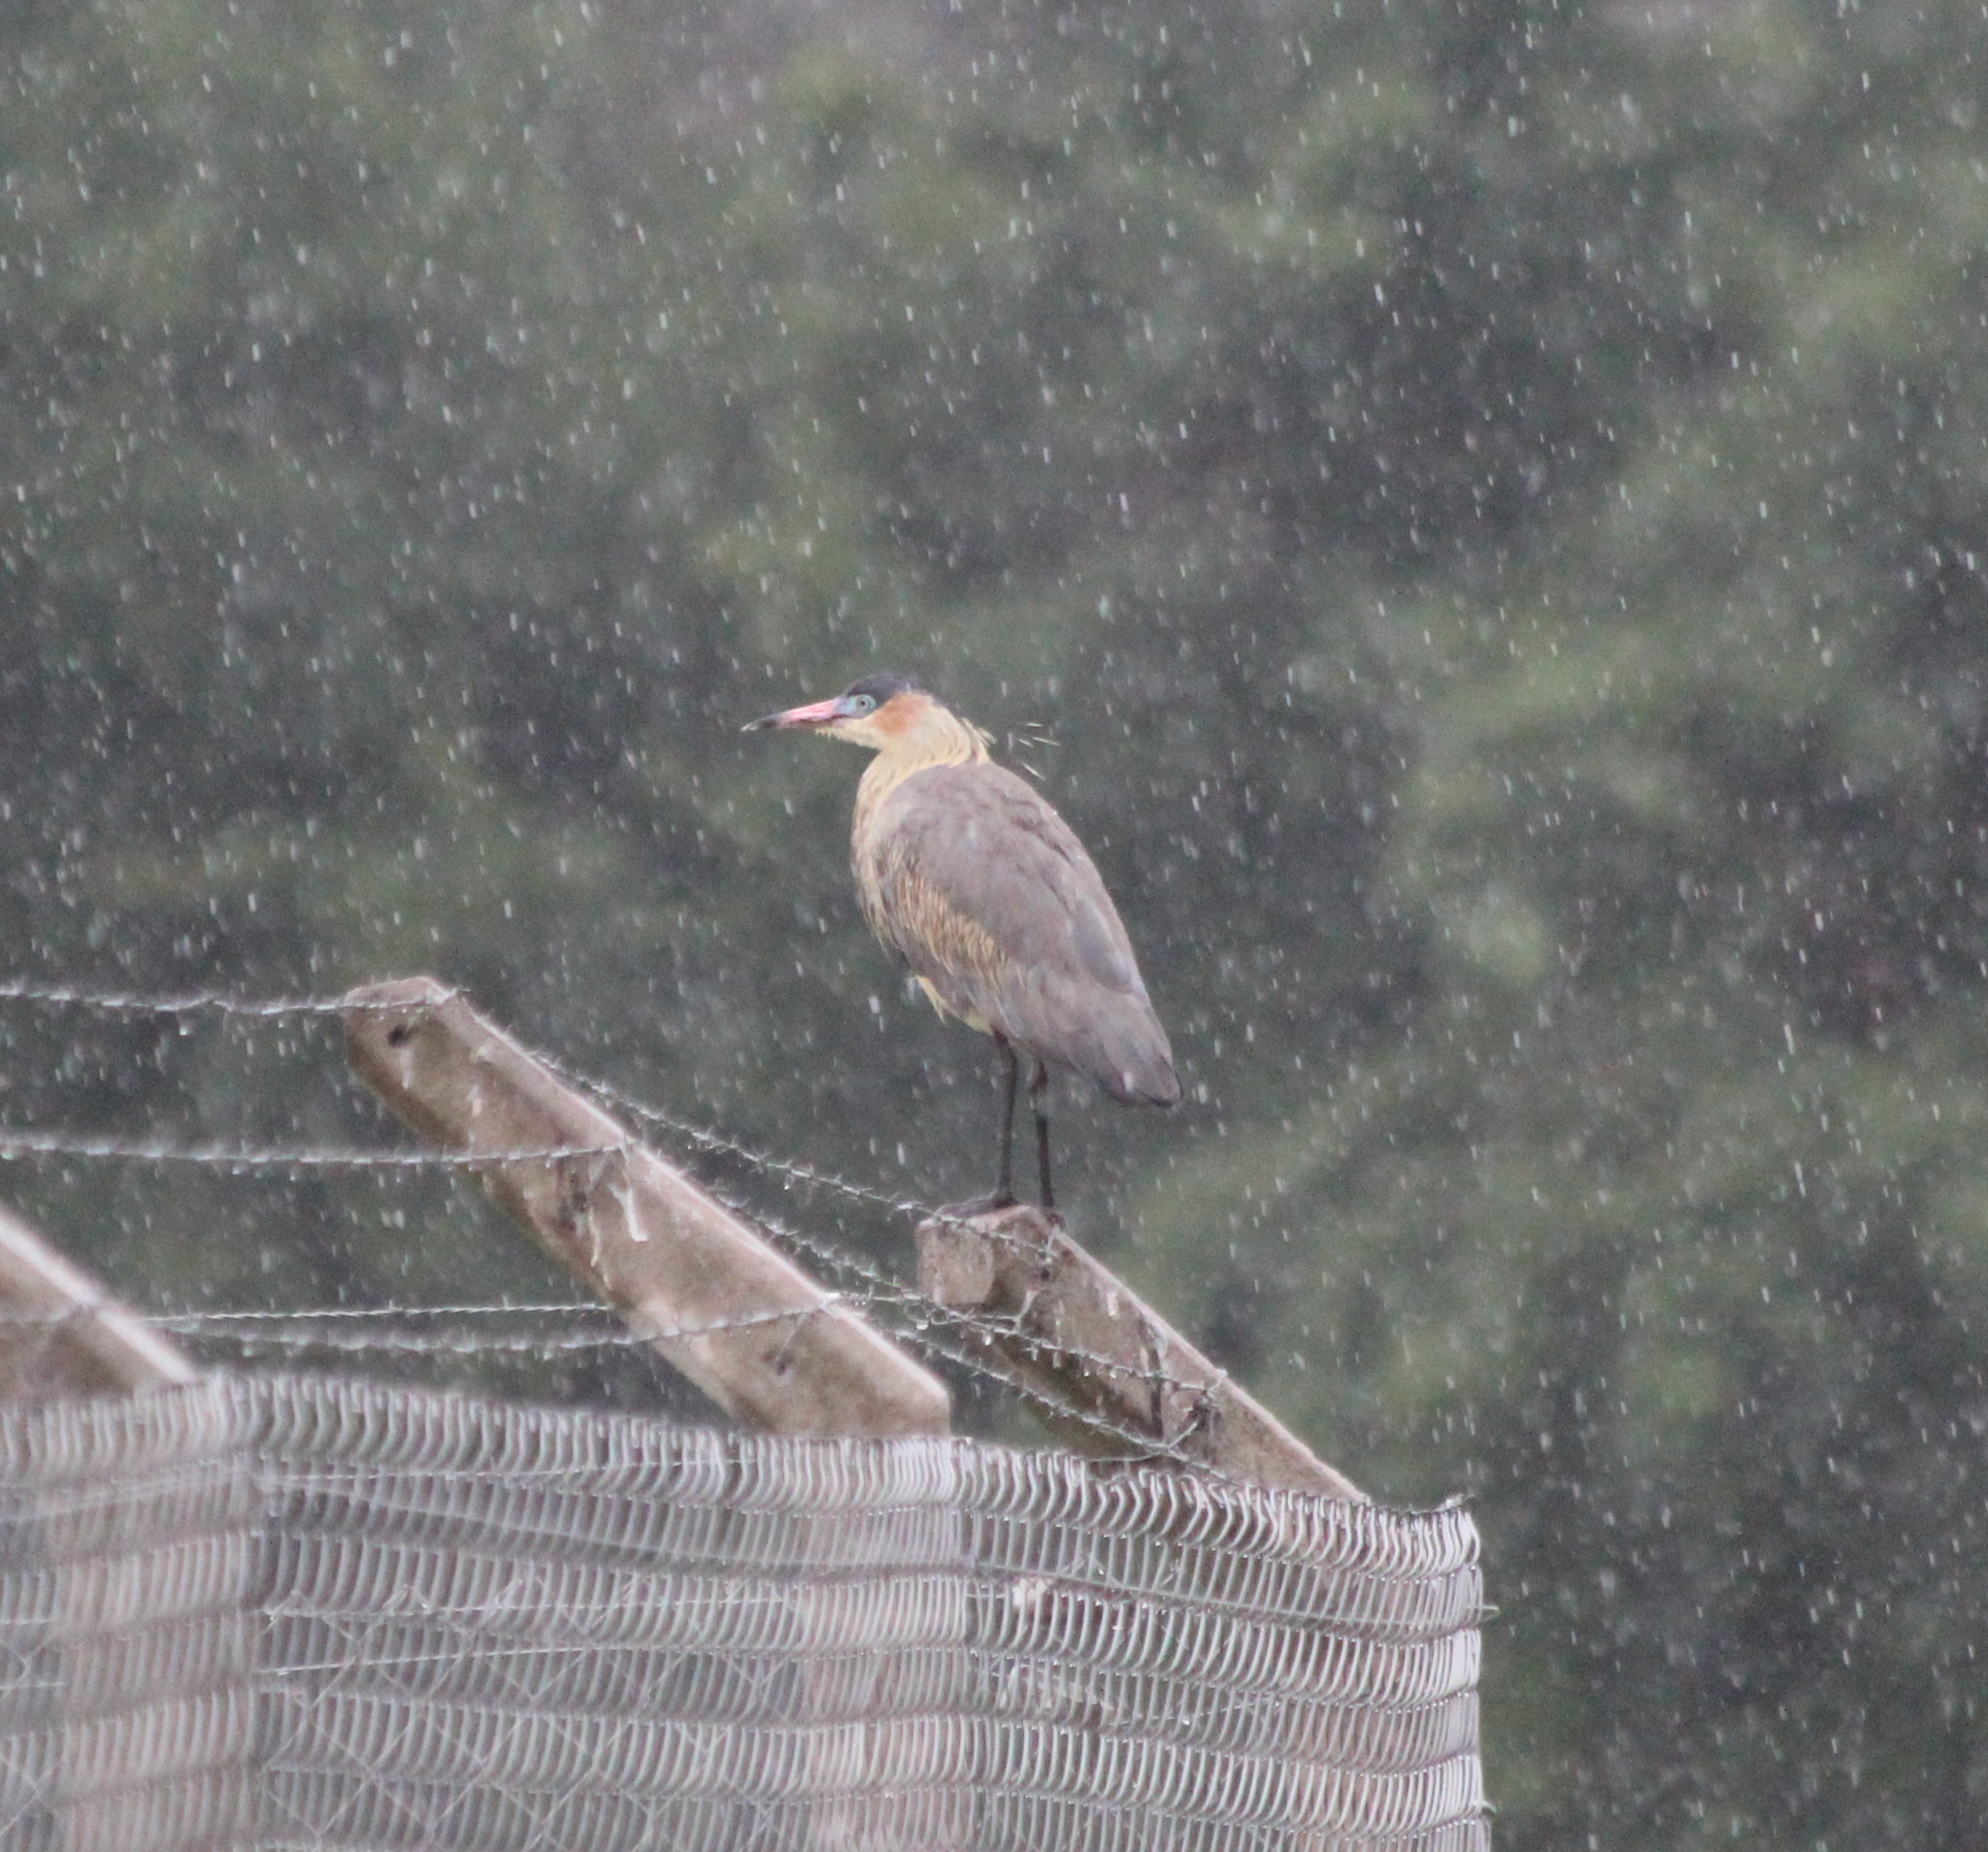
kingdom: Animalia
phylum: Chordata
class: Aves
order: Pelecaniformes
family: Ardeidae
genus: Syrigma
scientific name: Syrigma sibilatrix
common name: Whistling heron
